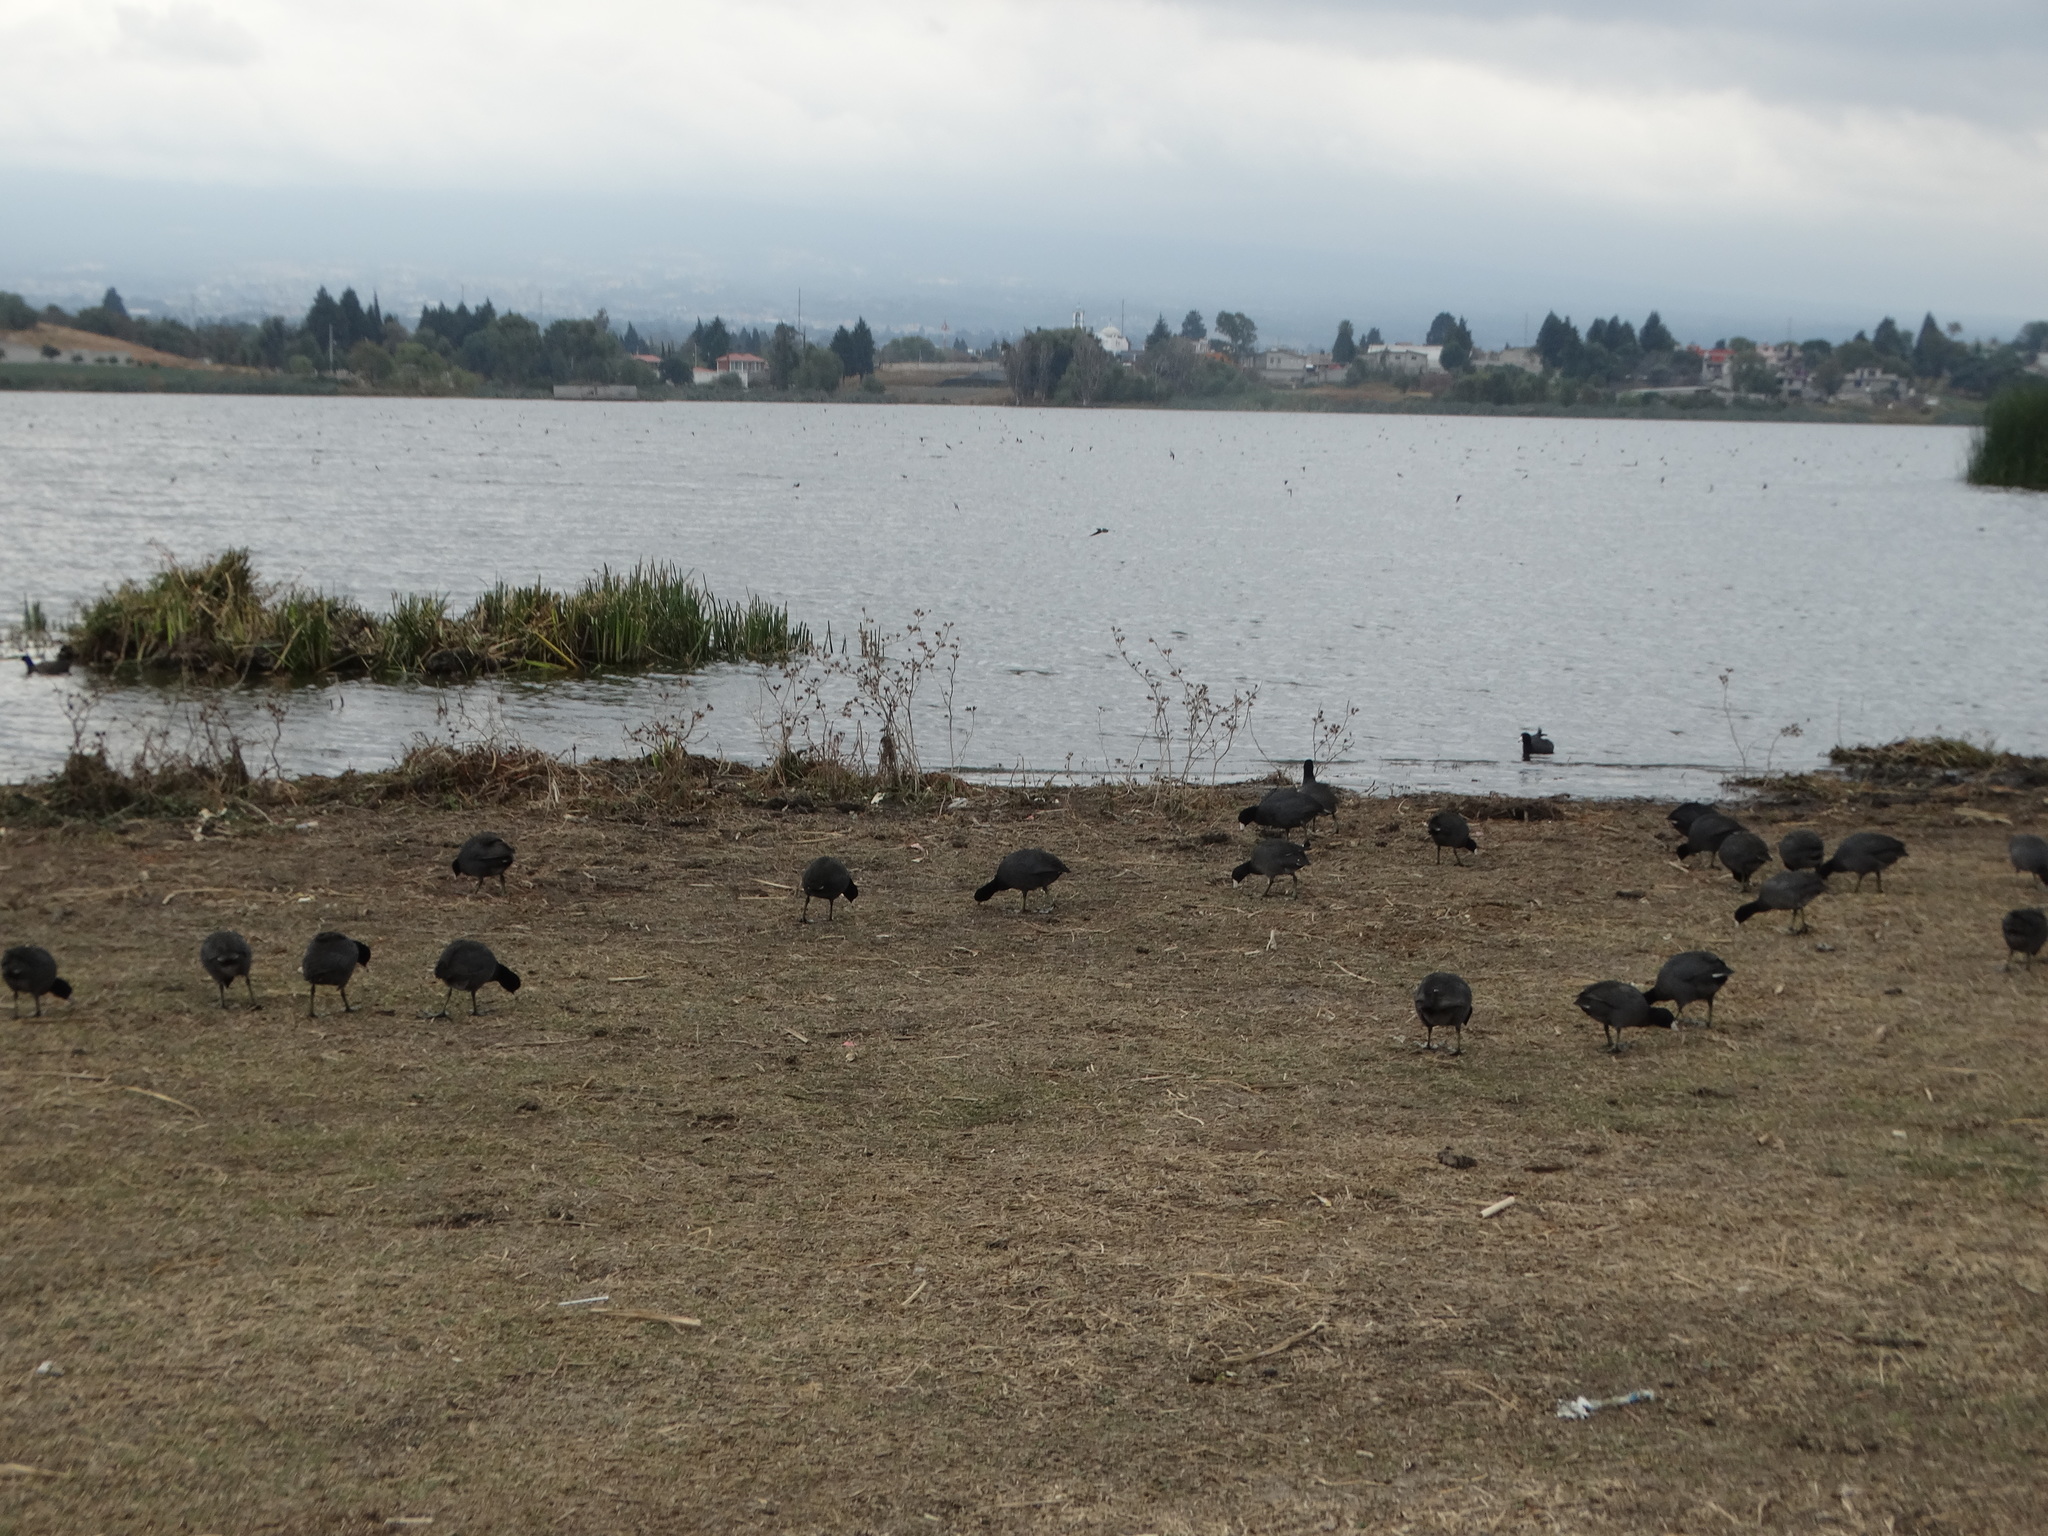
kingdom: Animalia
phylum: Chordata
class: Aves
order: Gruiformes
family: Rallidae
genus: Fulica
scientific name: Fulica americana
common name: American coot
